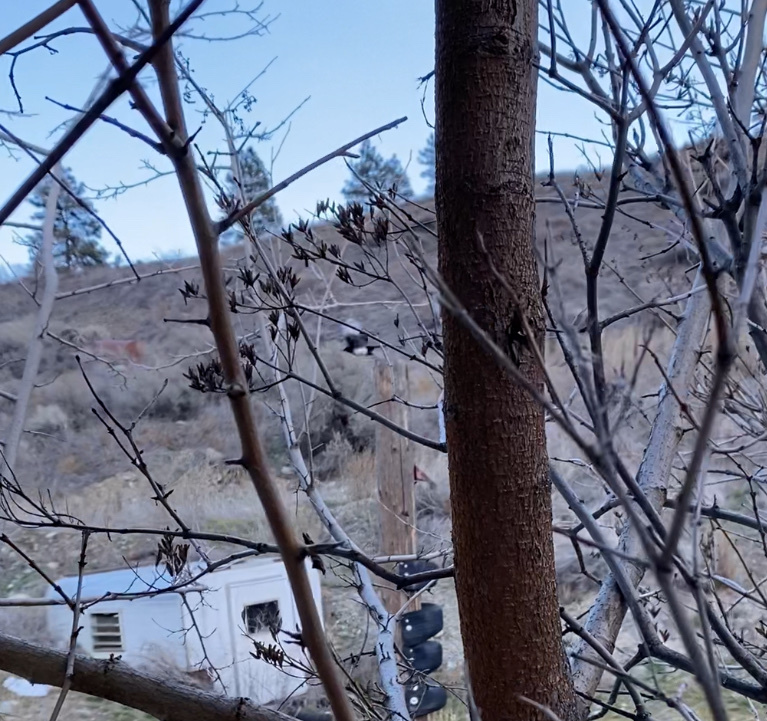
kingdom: Animalia
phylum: Chordata
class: Aves
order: Passeriformes
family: Corvidae
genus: Pica
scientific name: Pica hudsonia
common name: Black-billed magpie
